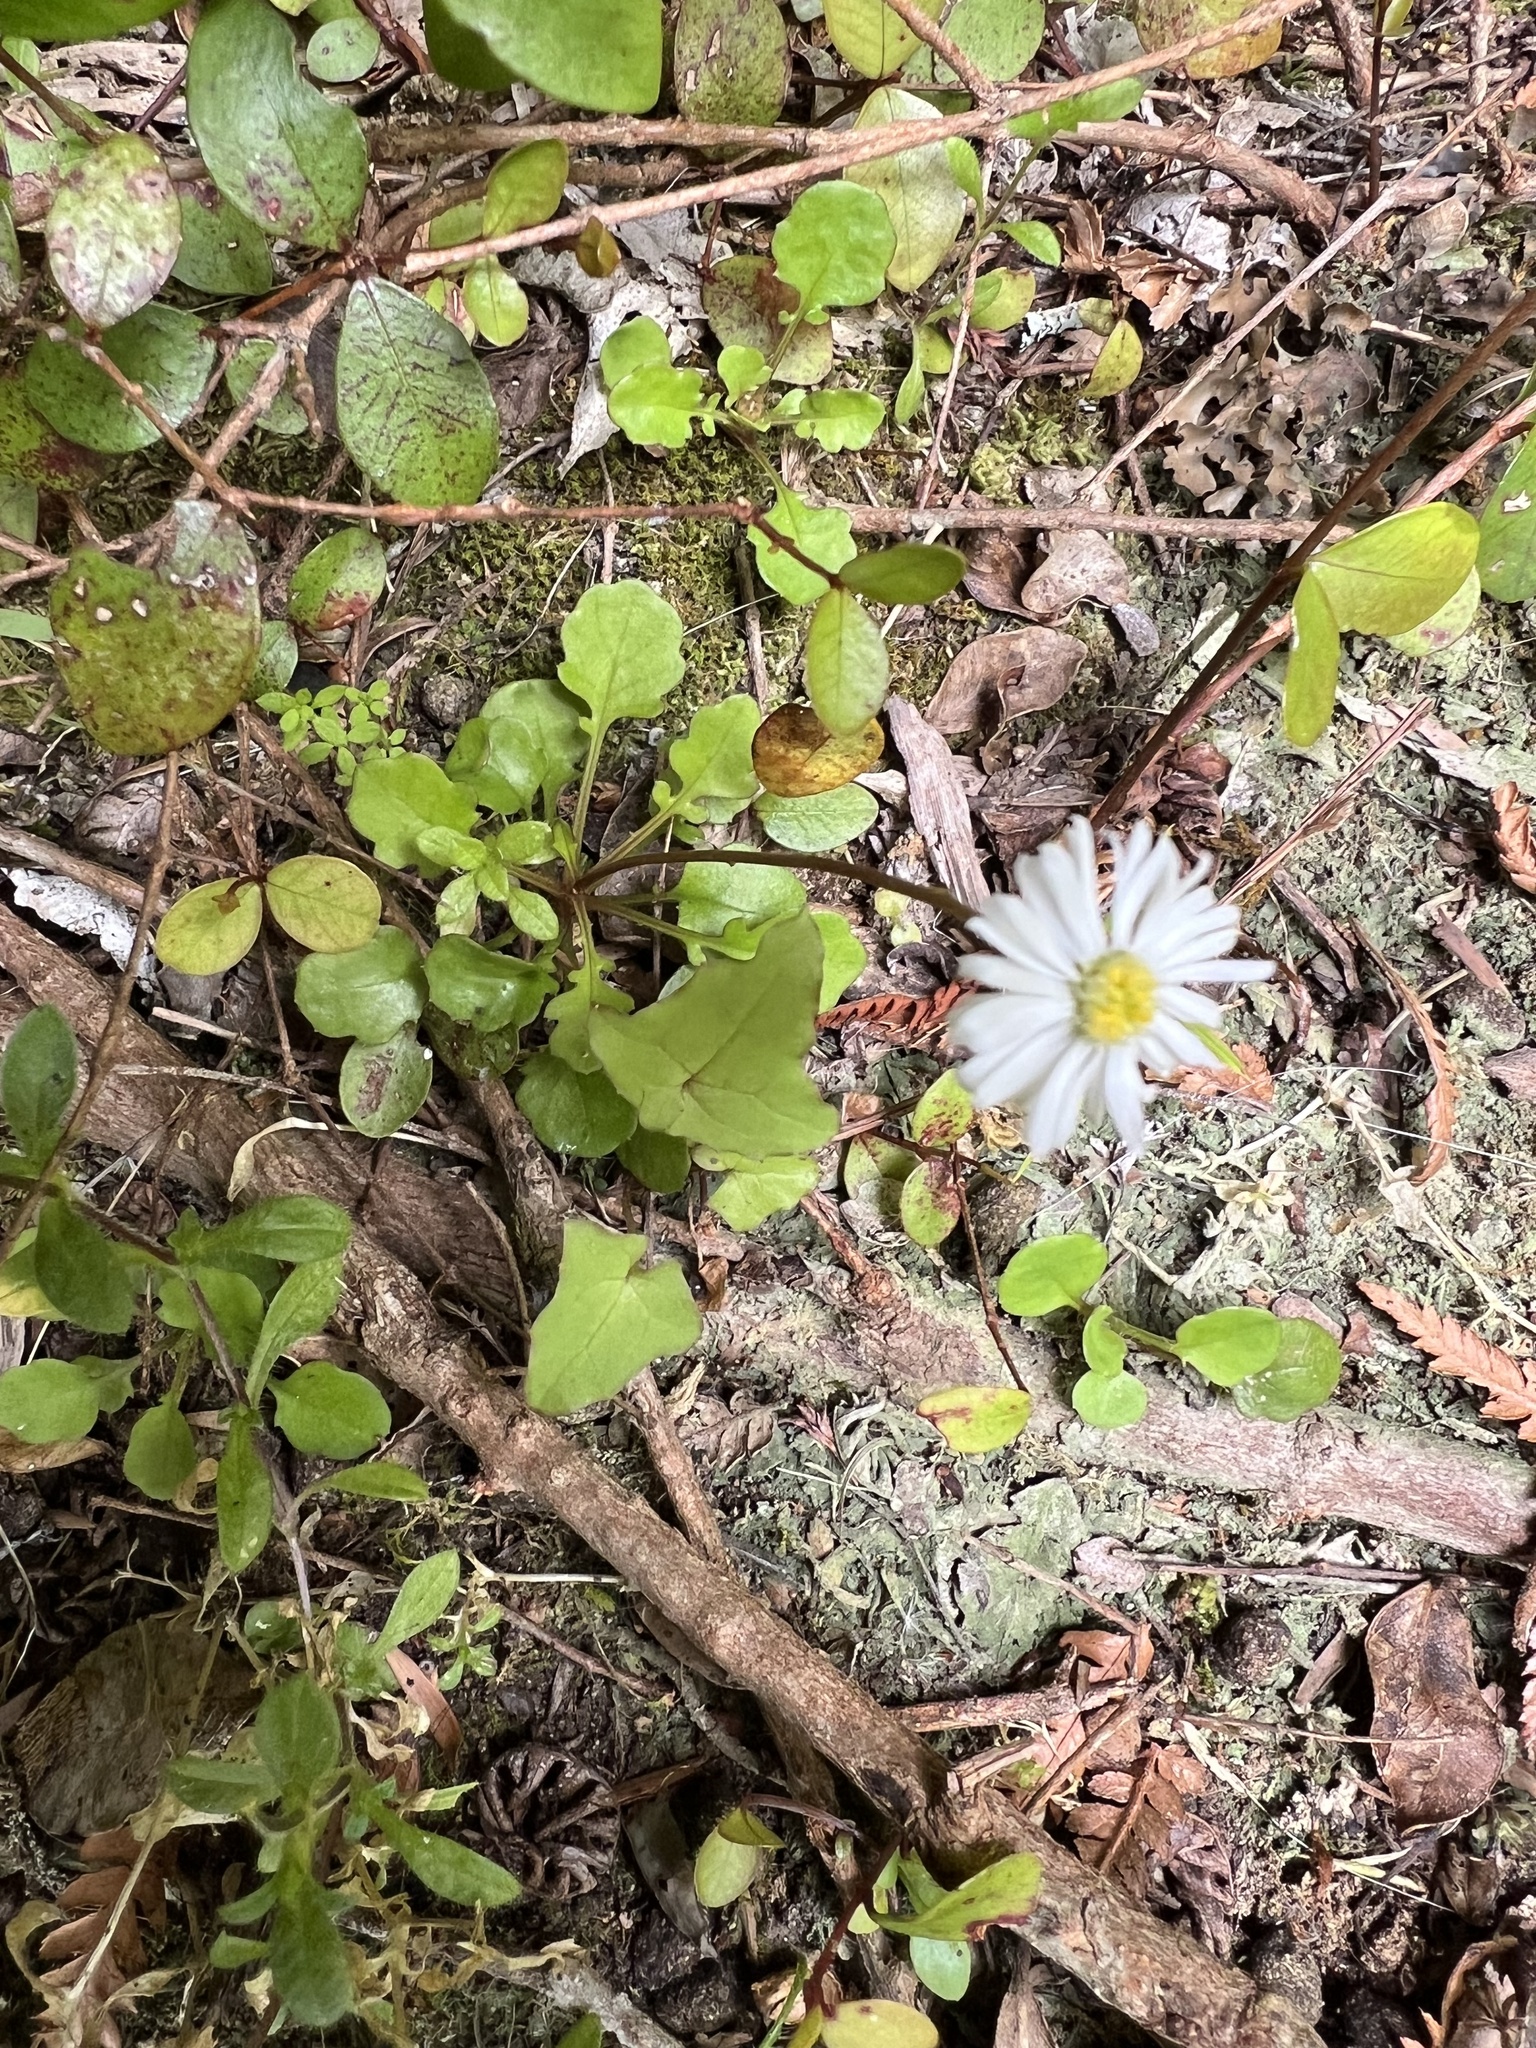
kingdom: Plantae
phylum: Tracheophyta
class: Magnoliopsida
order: Asterales
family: Asteraceae
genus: Lagenophora
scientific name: Lagenophora pumila
